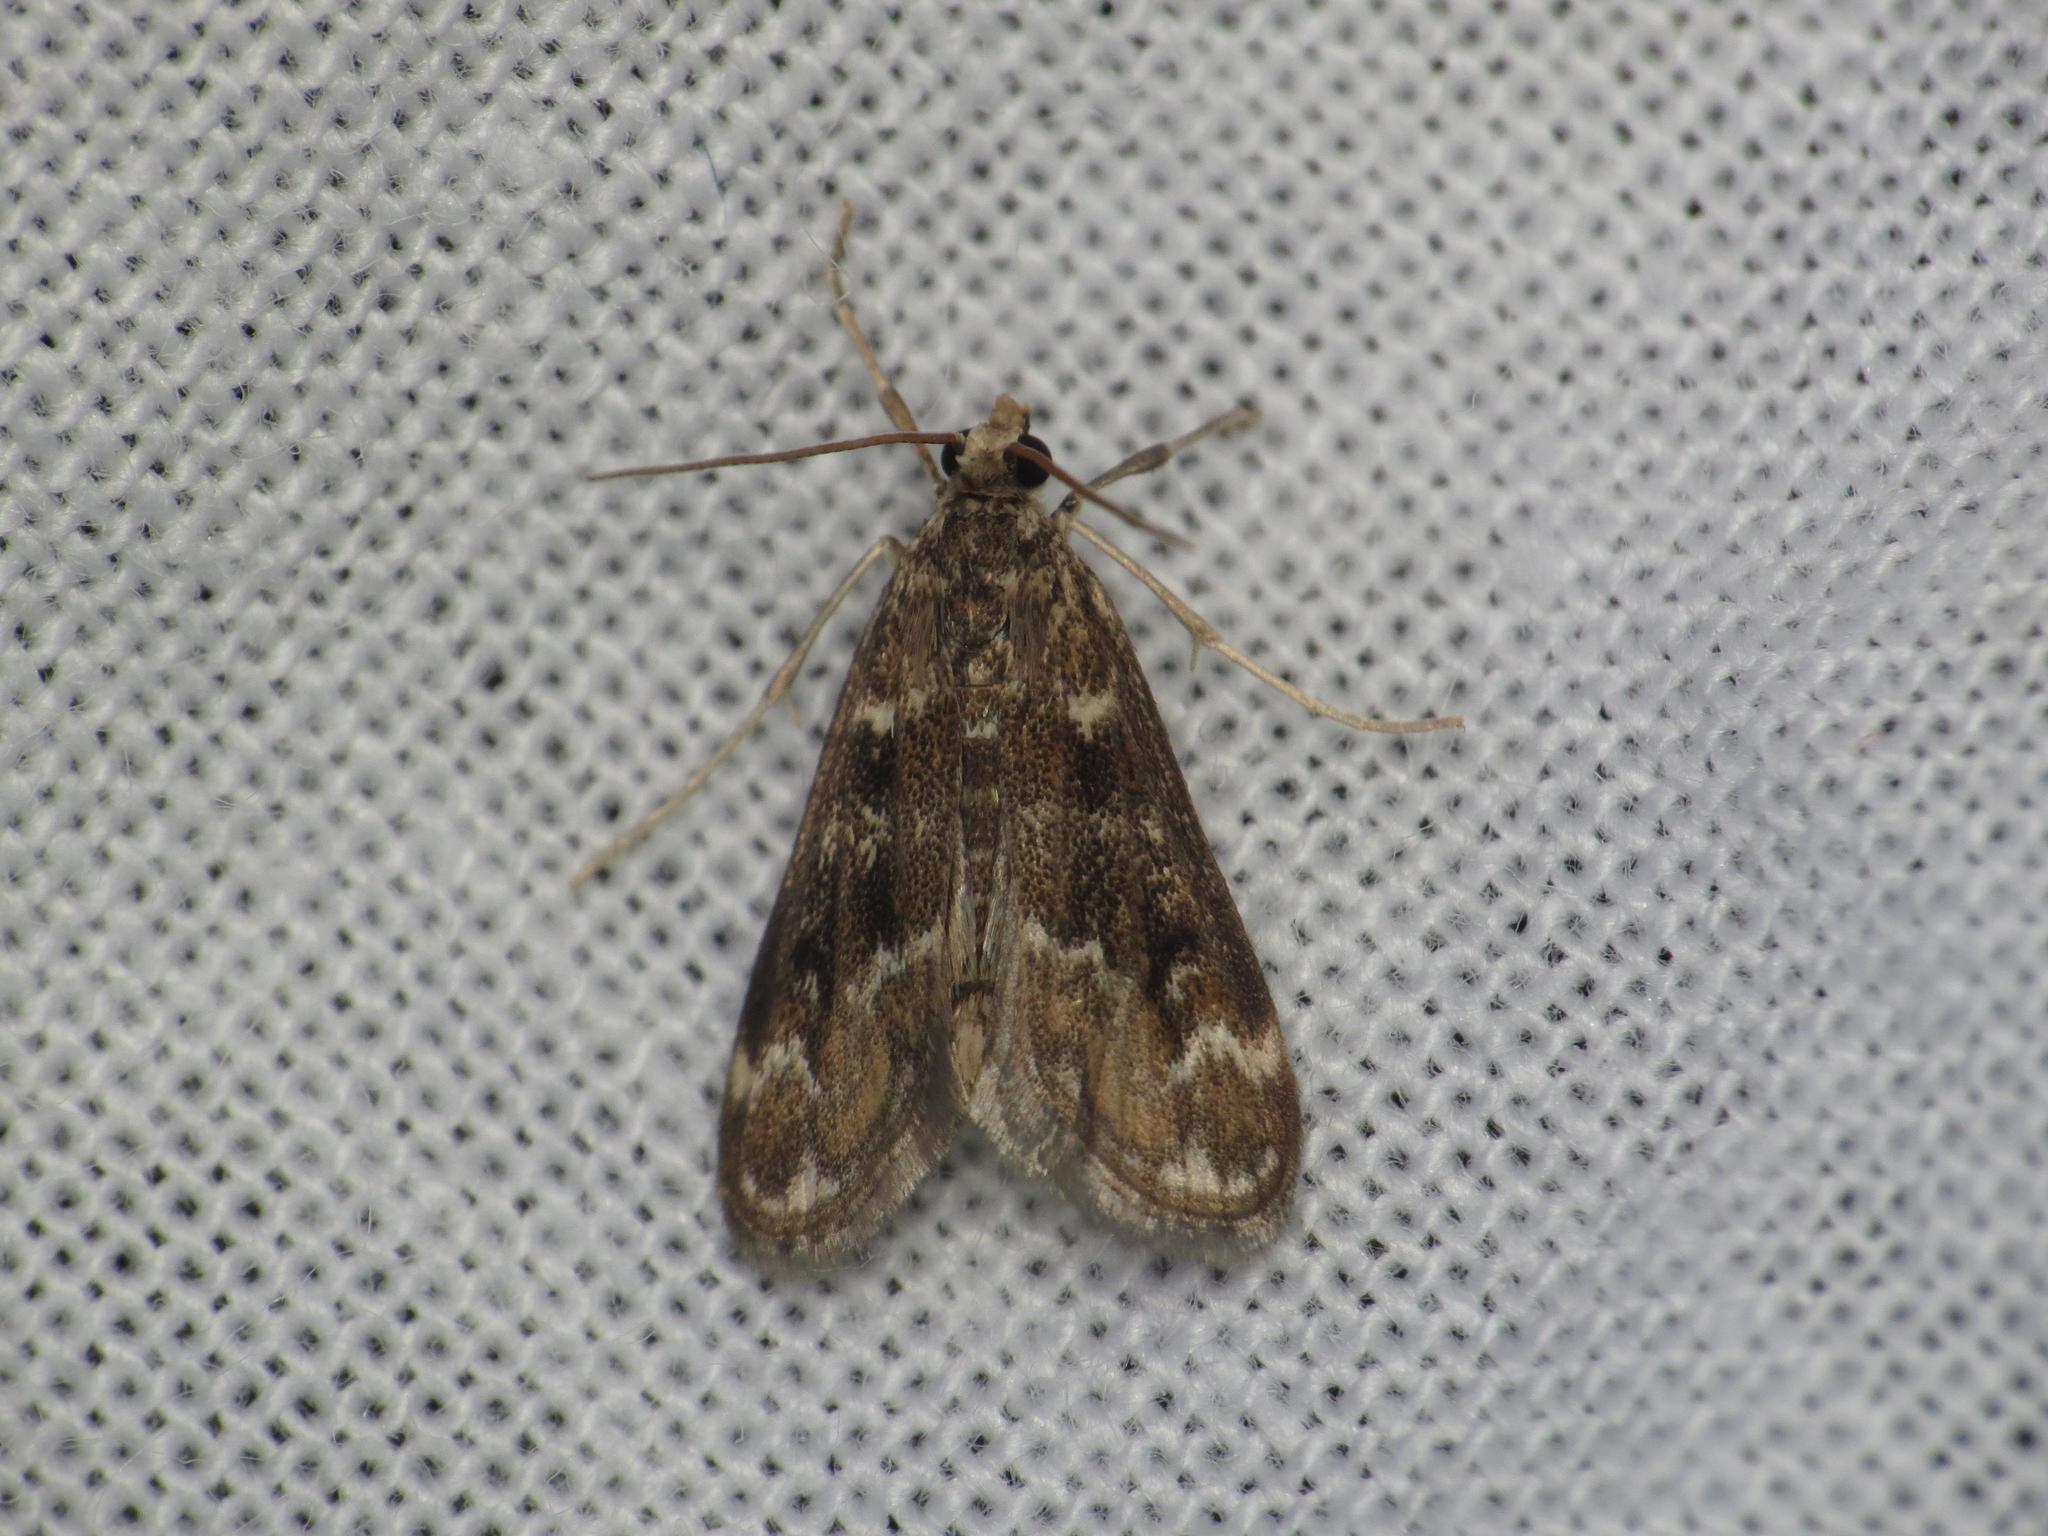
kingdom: Animalia
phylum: Arthropoda
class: Insecta
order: Lepidoptera
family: Crambidae
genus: Hygraula
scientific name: Hygraula nitens
